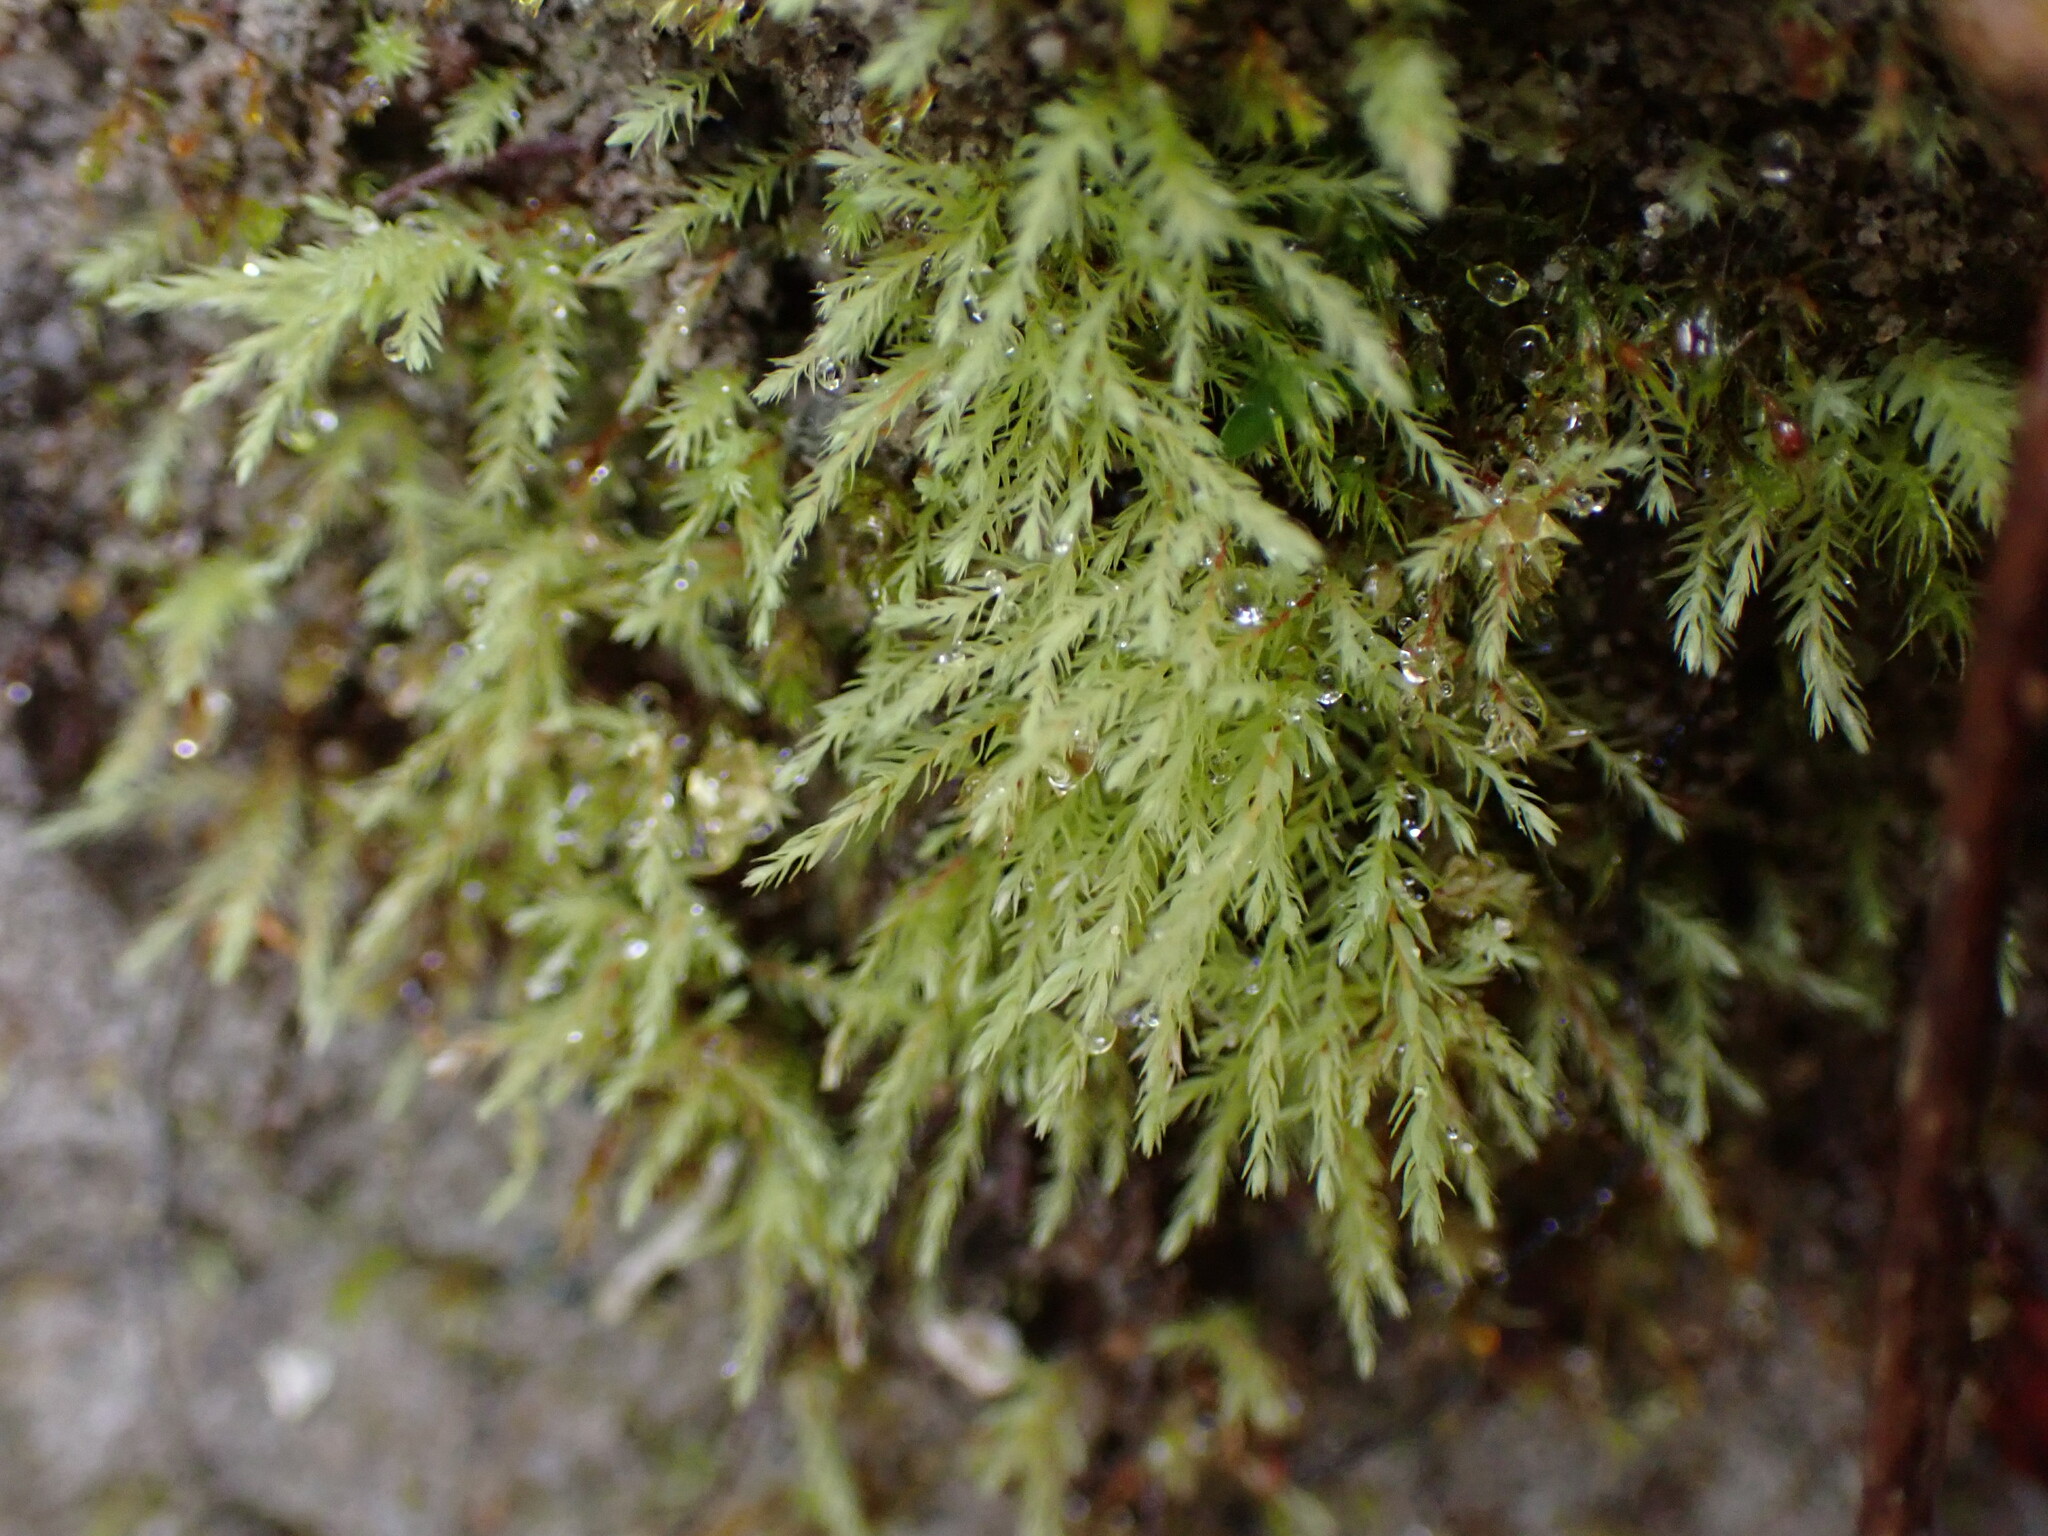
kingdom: Plantae
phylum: Bryophyta
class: Bryopsida
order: Bryales
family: Mniaceae
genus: Pohlia
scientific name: Pohlia wahlenbergii
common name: Wahlenberg's nodding moss
